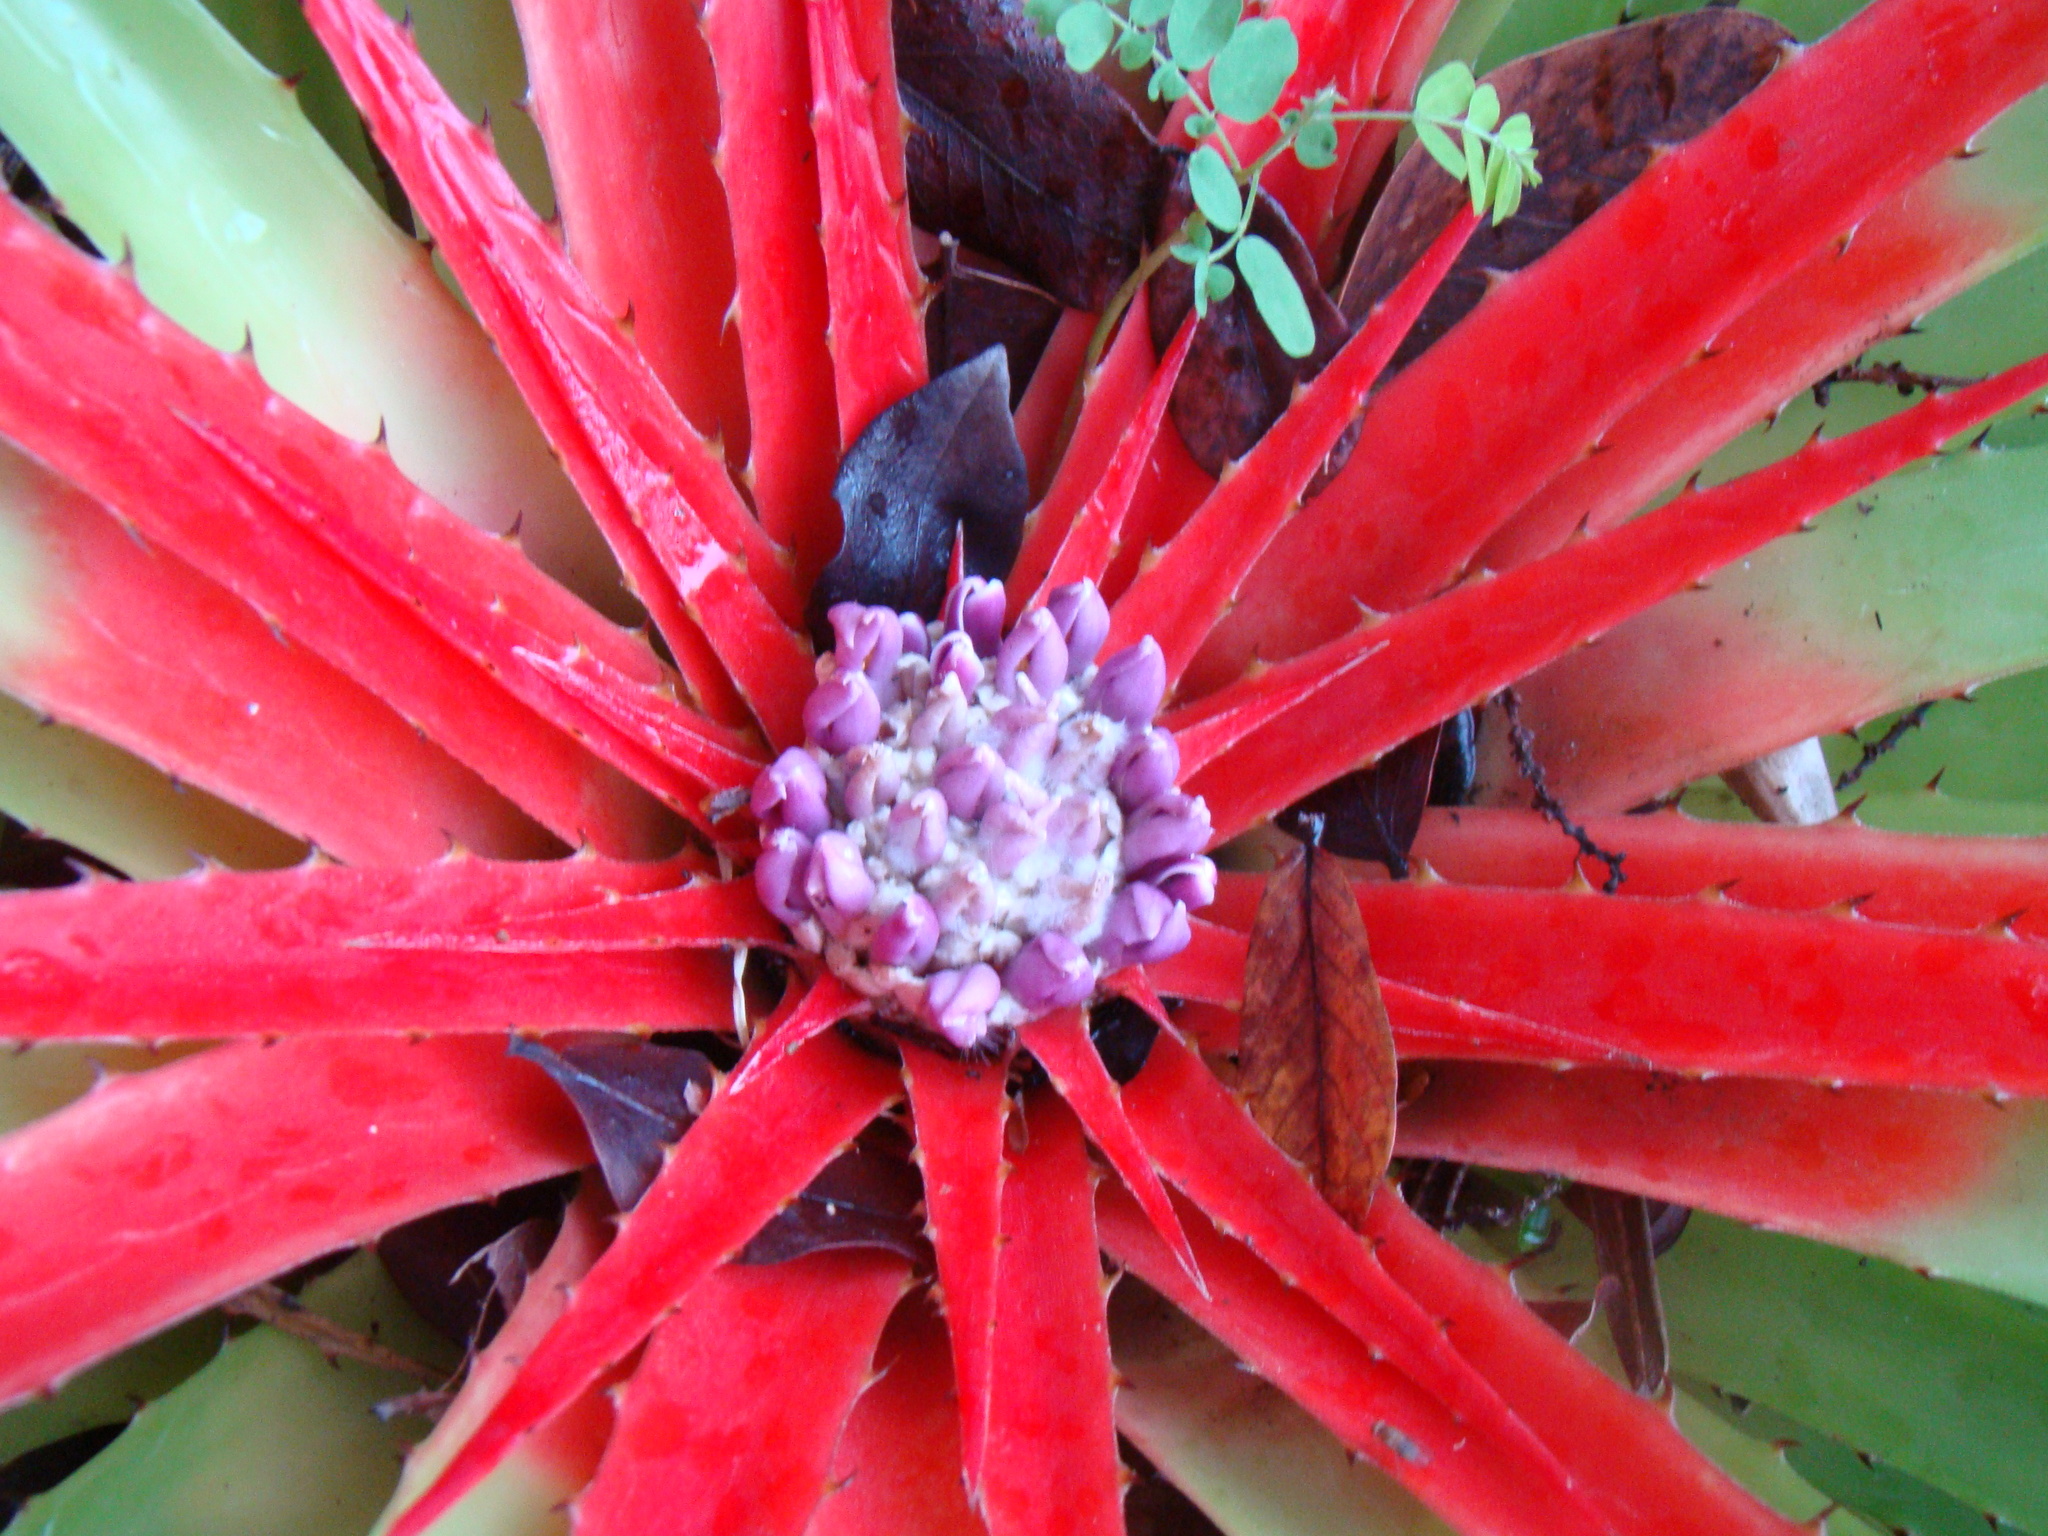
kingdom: Plantae
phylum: Tracheophyta
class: Liliopsida
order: Poales
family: Bromeliaceae
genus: Bromelia
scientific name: Bromelia humilis
